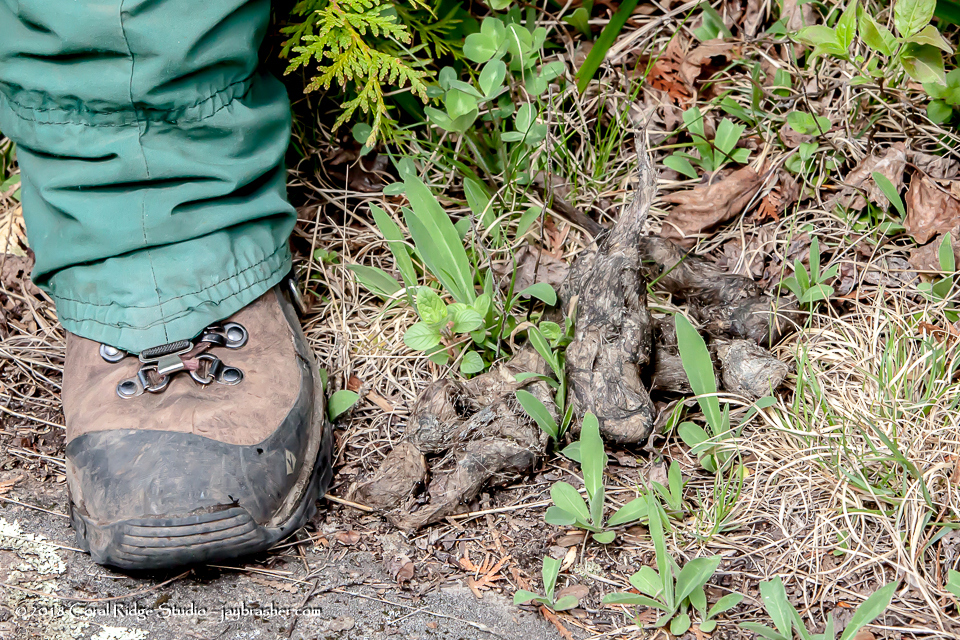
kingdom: Animalia
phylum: Chordata
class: Mammalia
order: Carnivora
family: Canidae
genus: Canis
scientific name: Canis lupus
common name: Gray wolf
